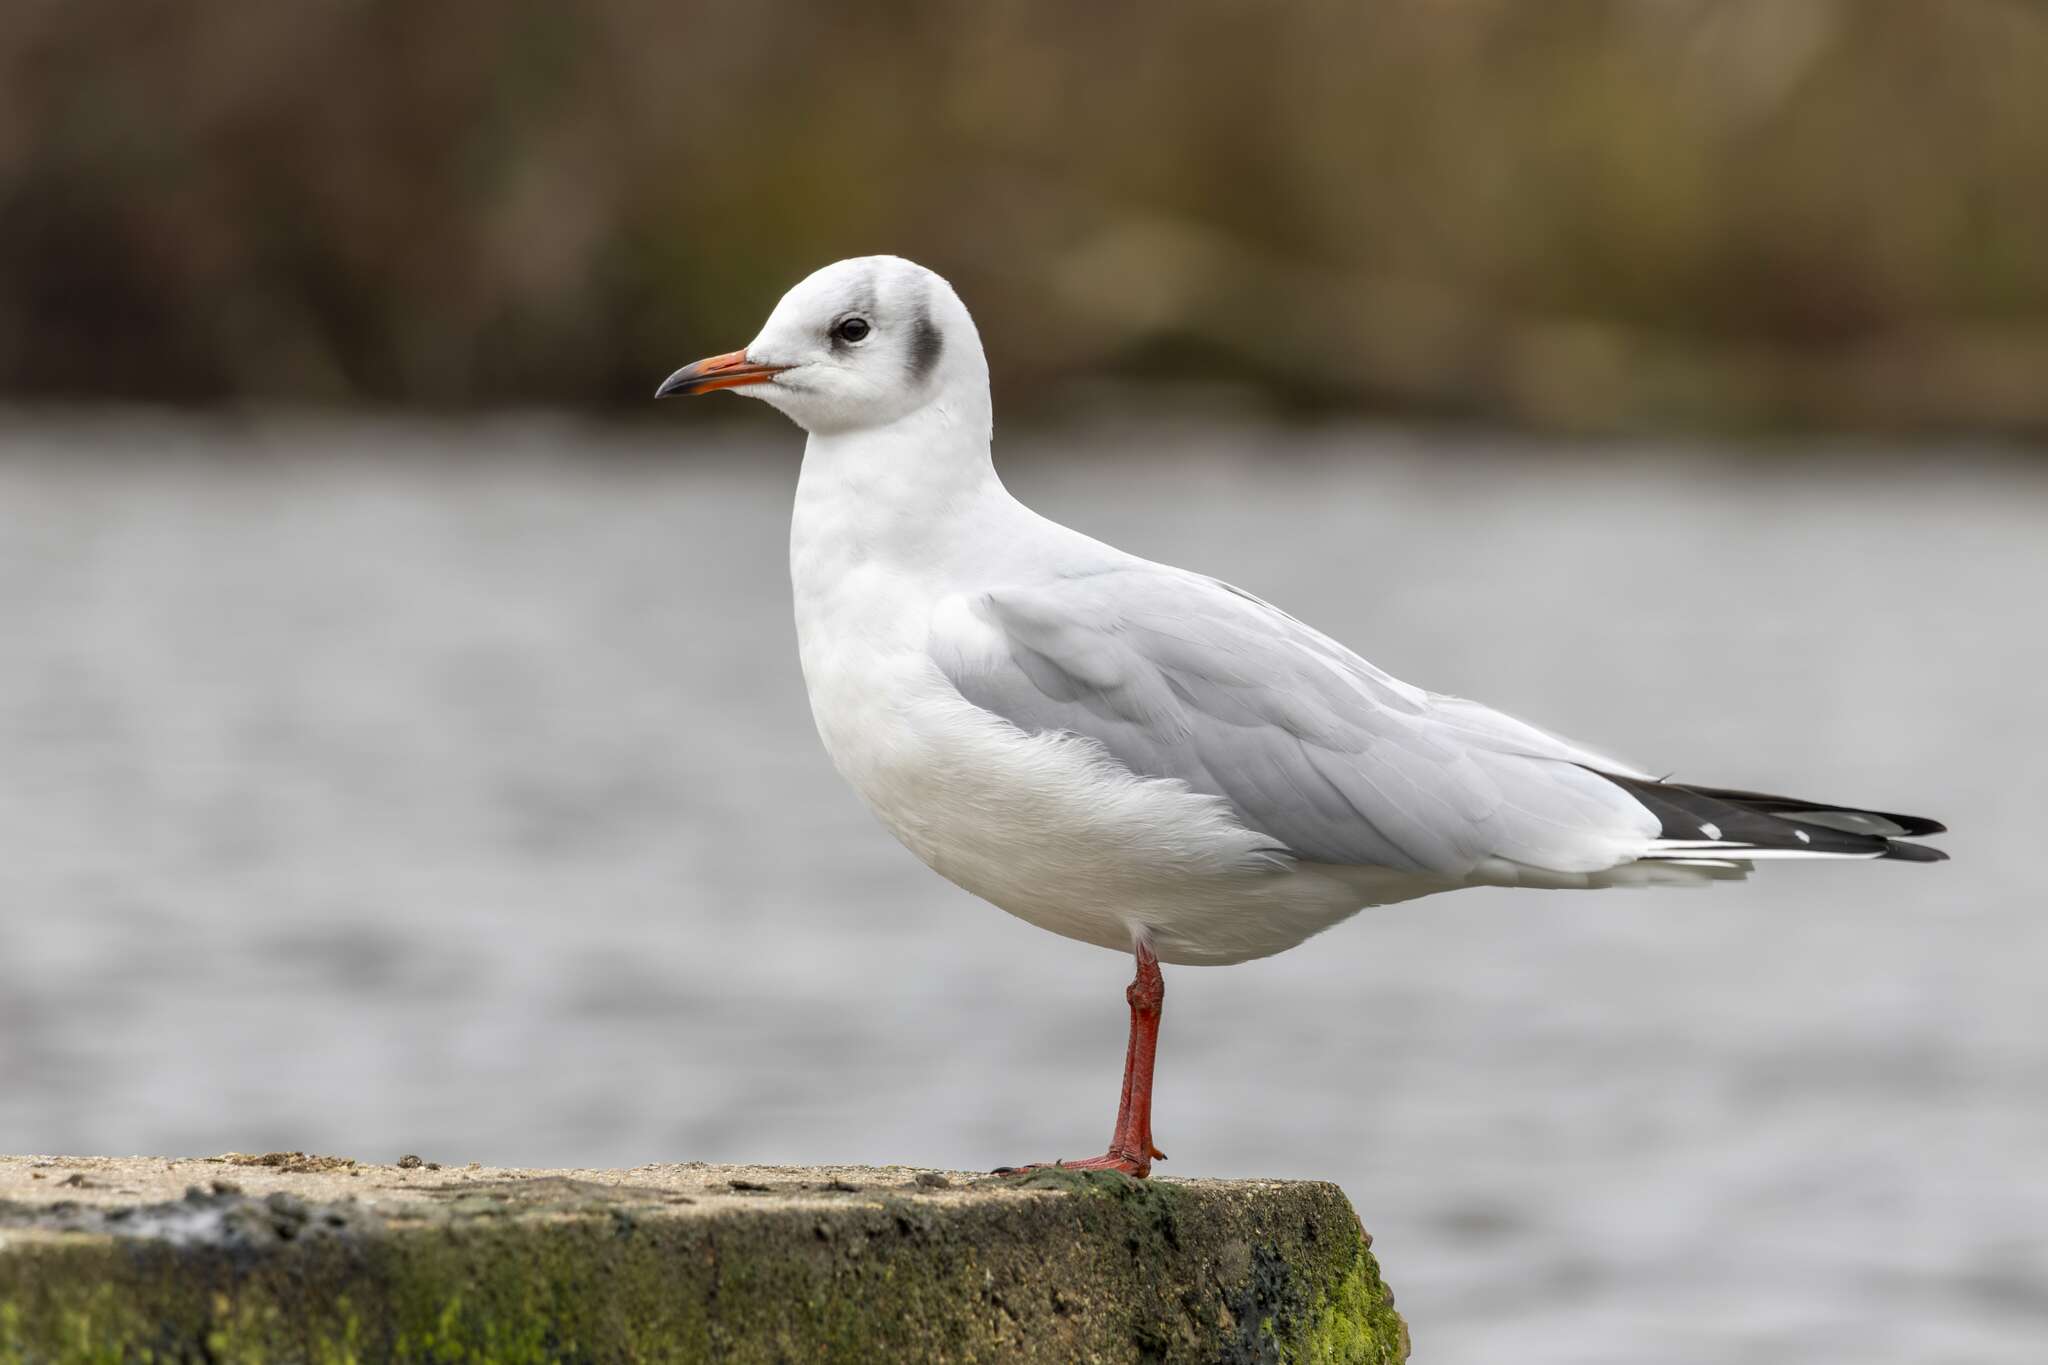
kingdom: Animalia
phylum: Chordata
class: Aves
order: Charadriiformes
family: Laridae
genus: Chroicocephalus
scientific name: Chroicocephalus ridibundus
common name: Black-headed gull
